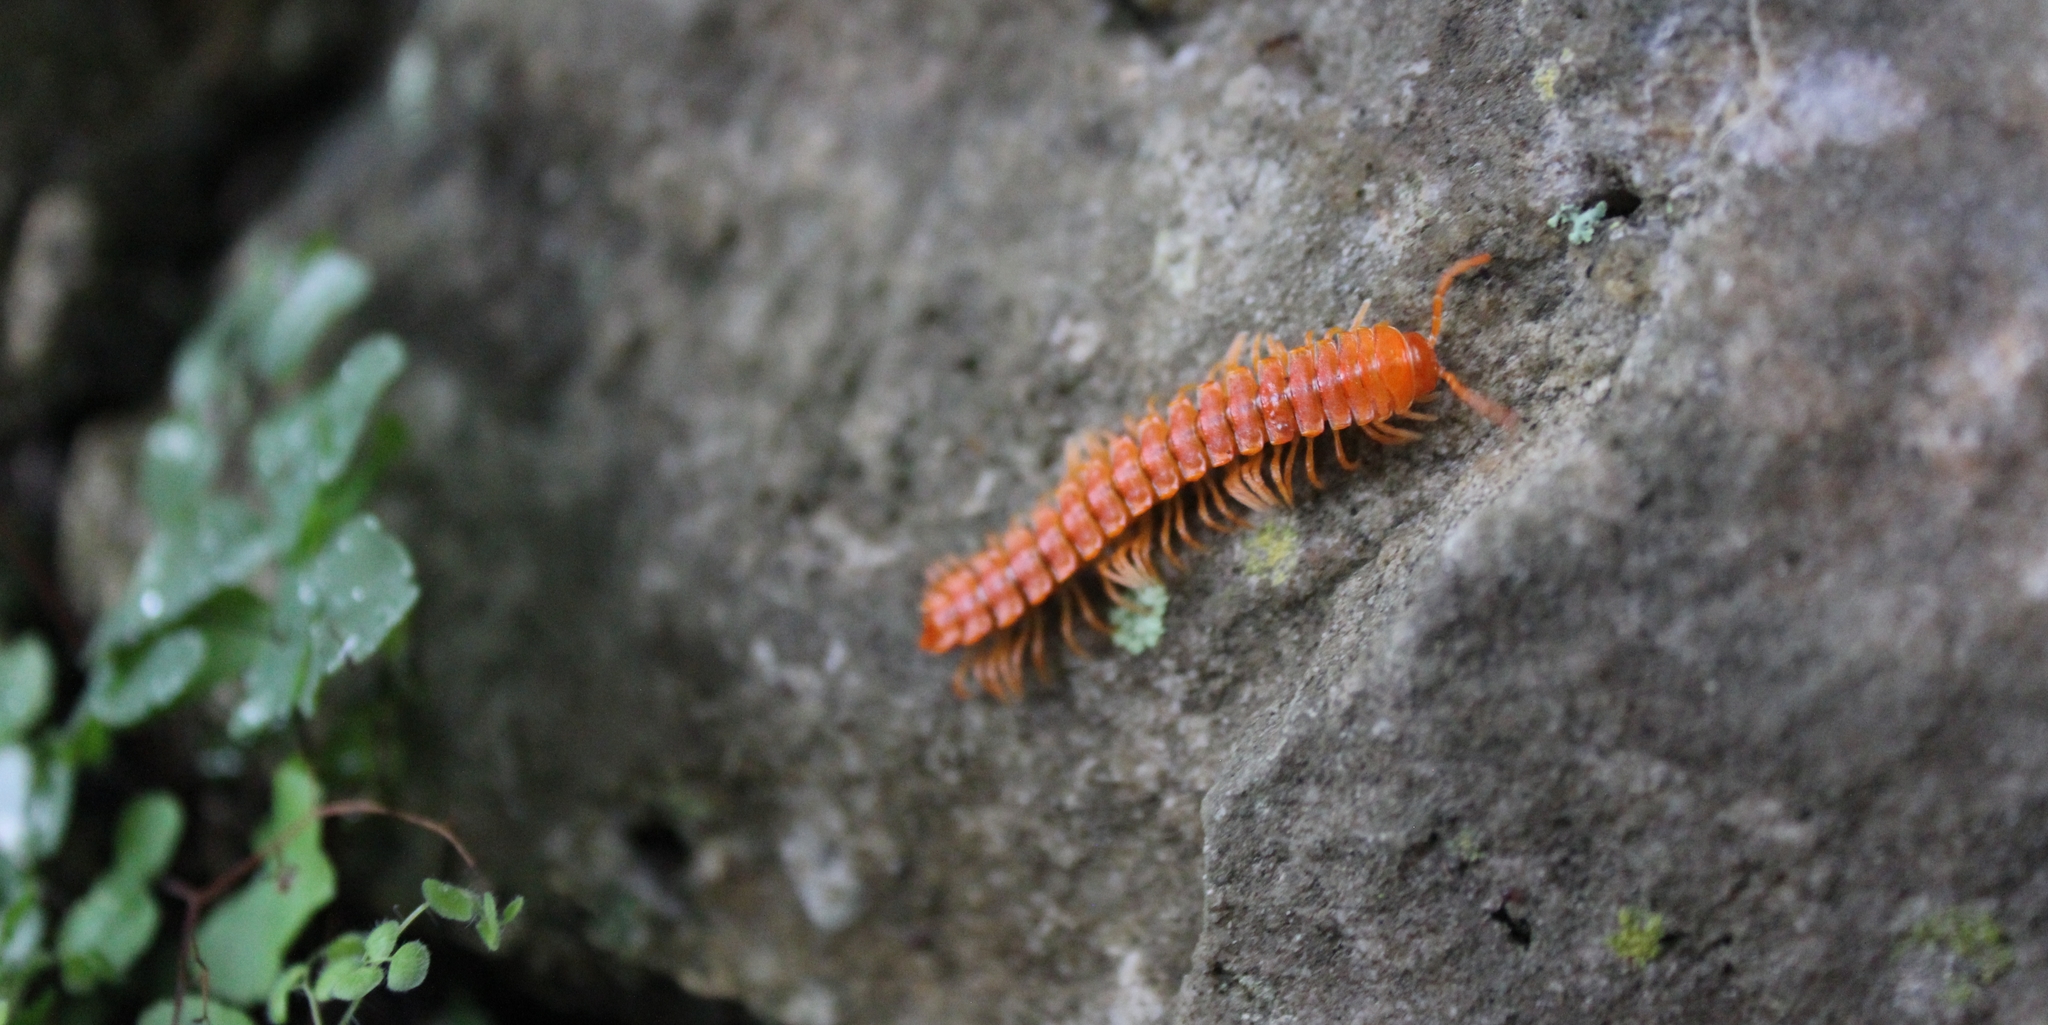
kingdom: Animalia
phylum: Arthropoda
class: Diplopoda
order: Polydesmida
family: Rhachodesmidae
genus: Aceratophallus
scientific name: Aceratophallus maya
